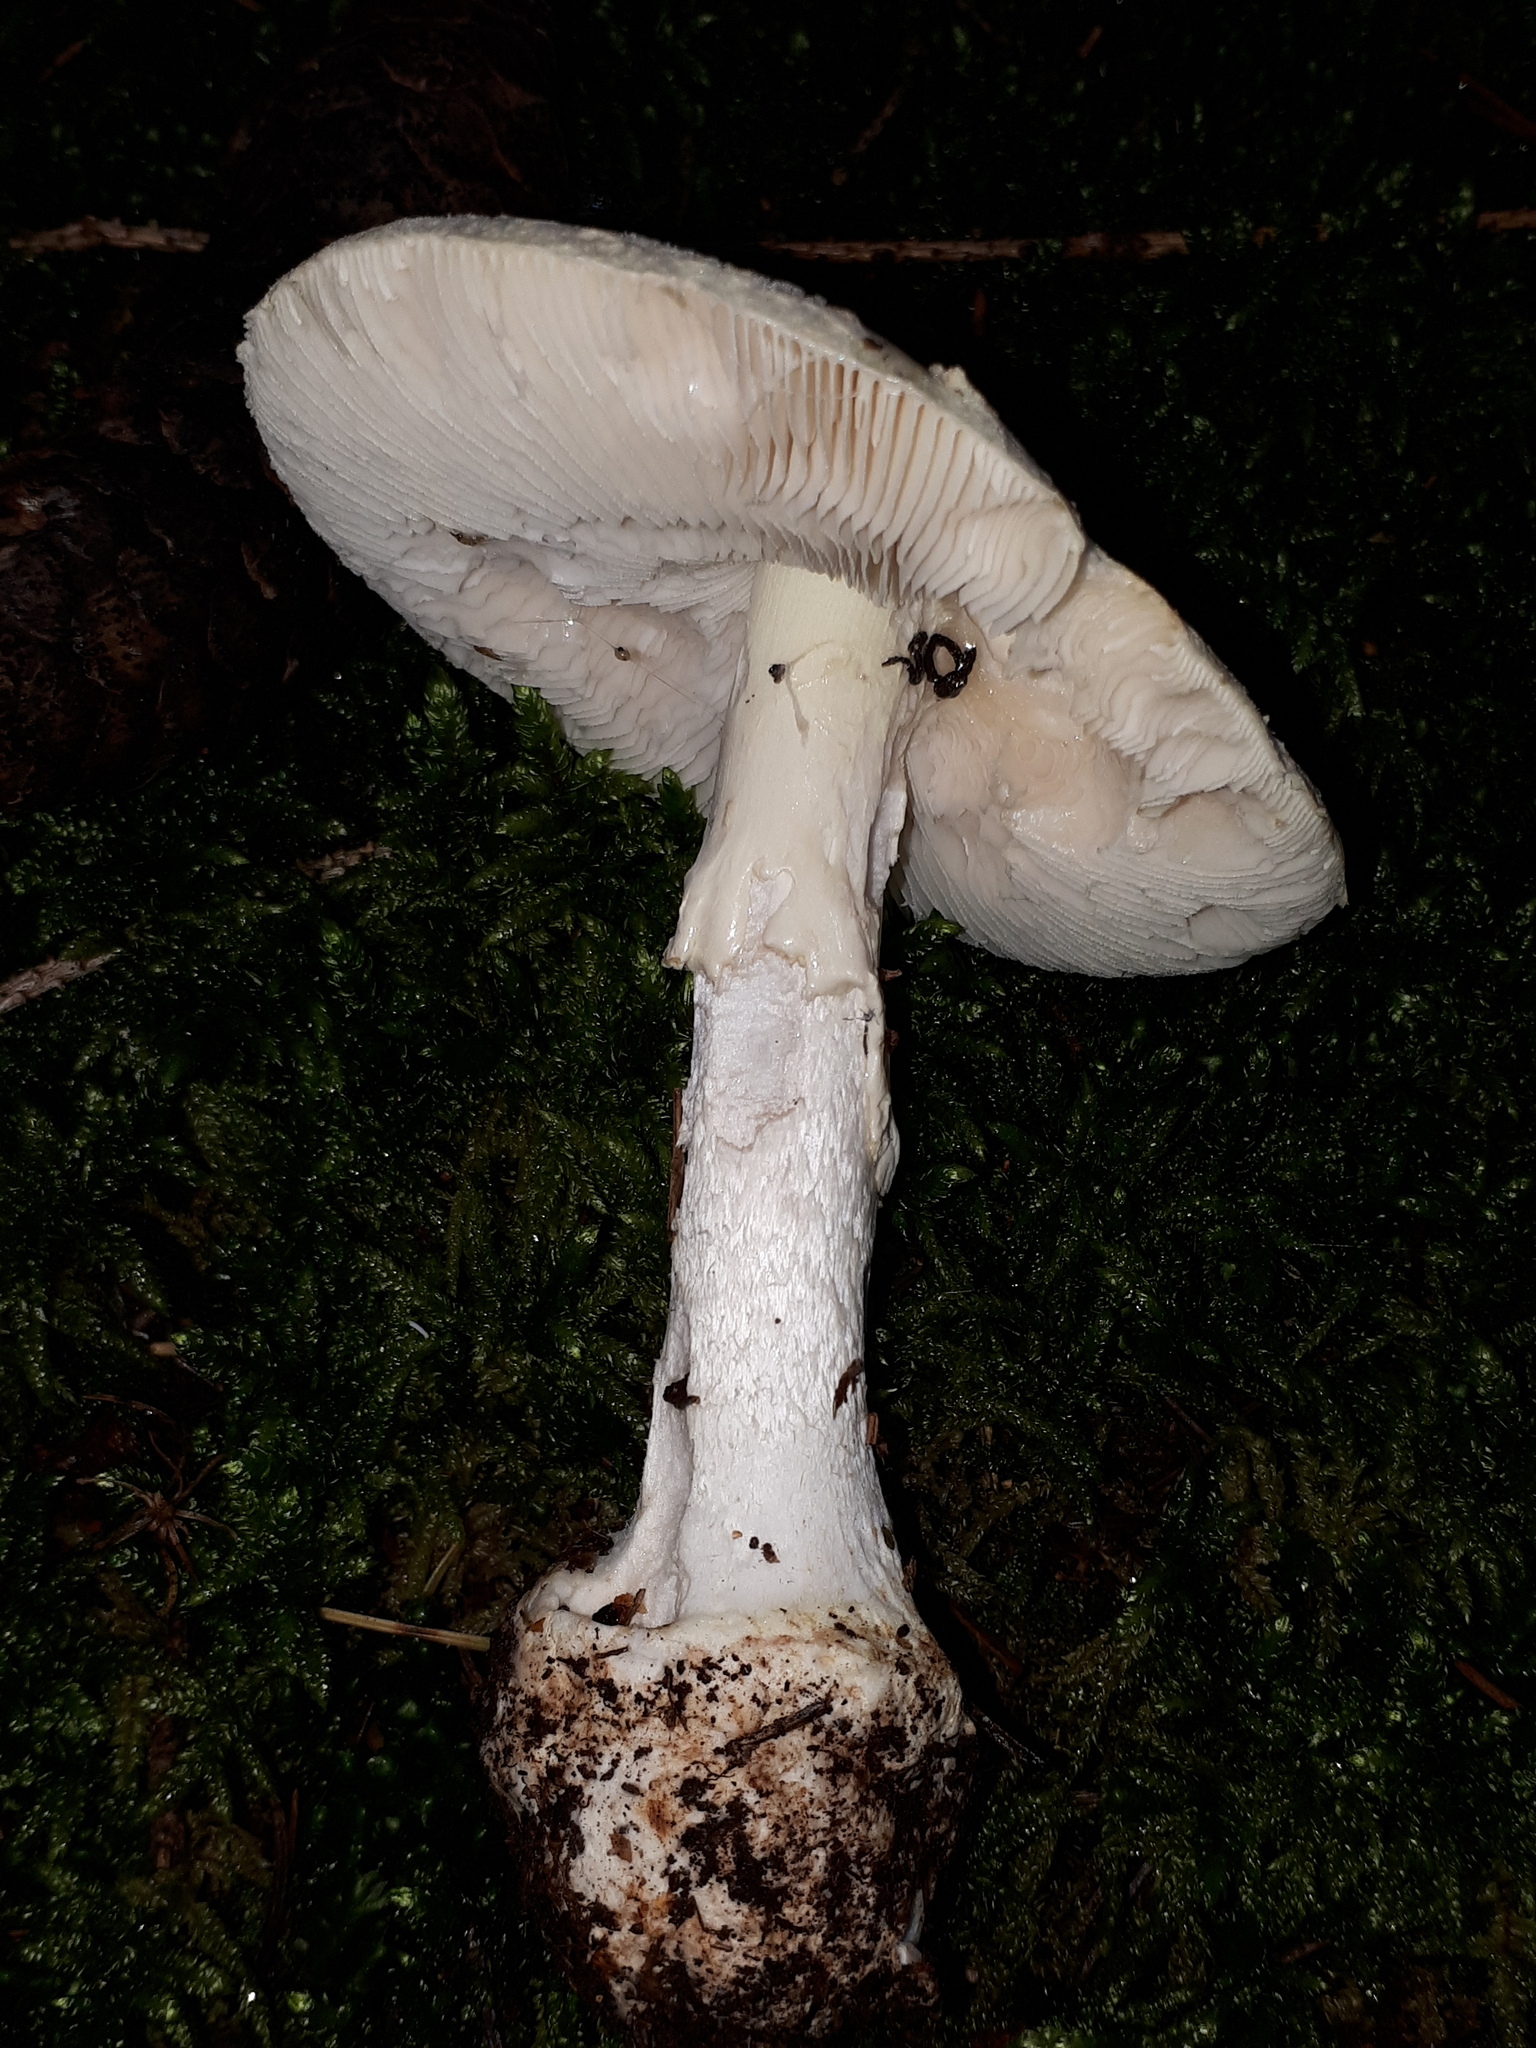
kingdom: Fungi
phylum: Basidiomycota
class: Agaricomycetes
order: Agaricales
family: Amanitaceae
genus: Amanita
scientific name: Amanita citrina
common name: False death-cap
